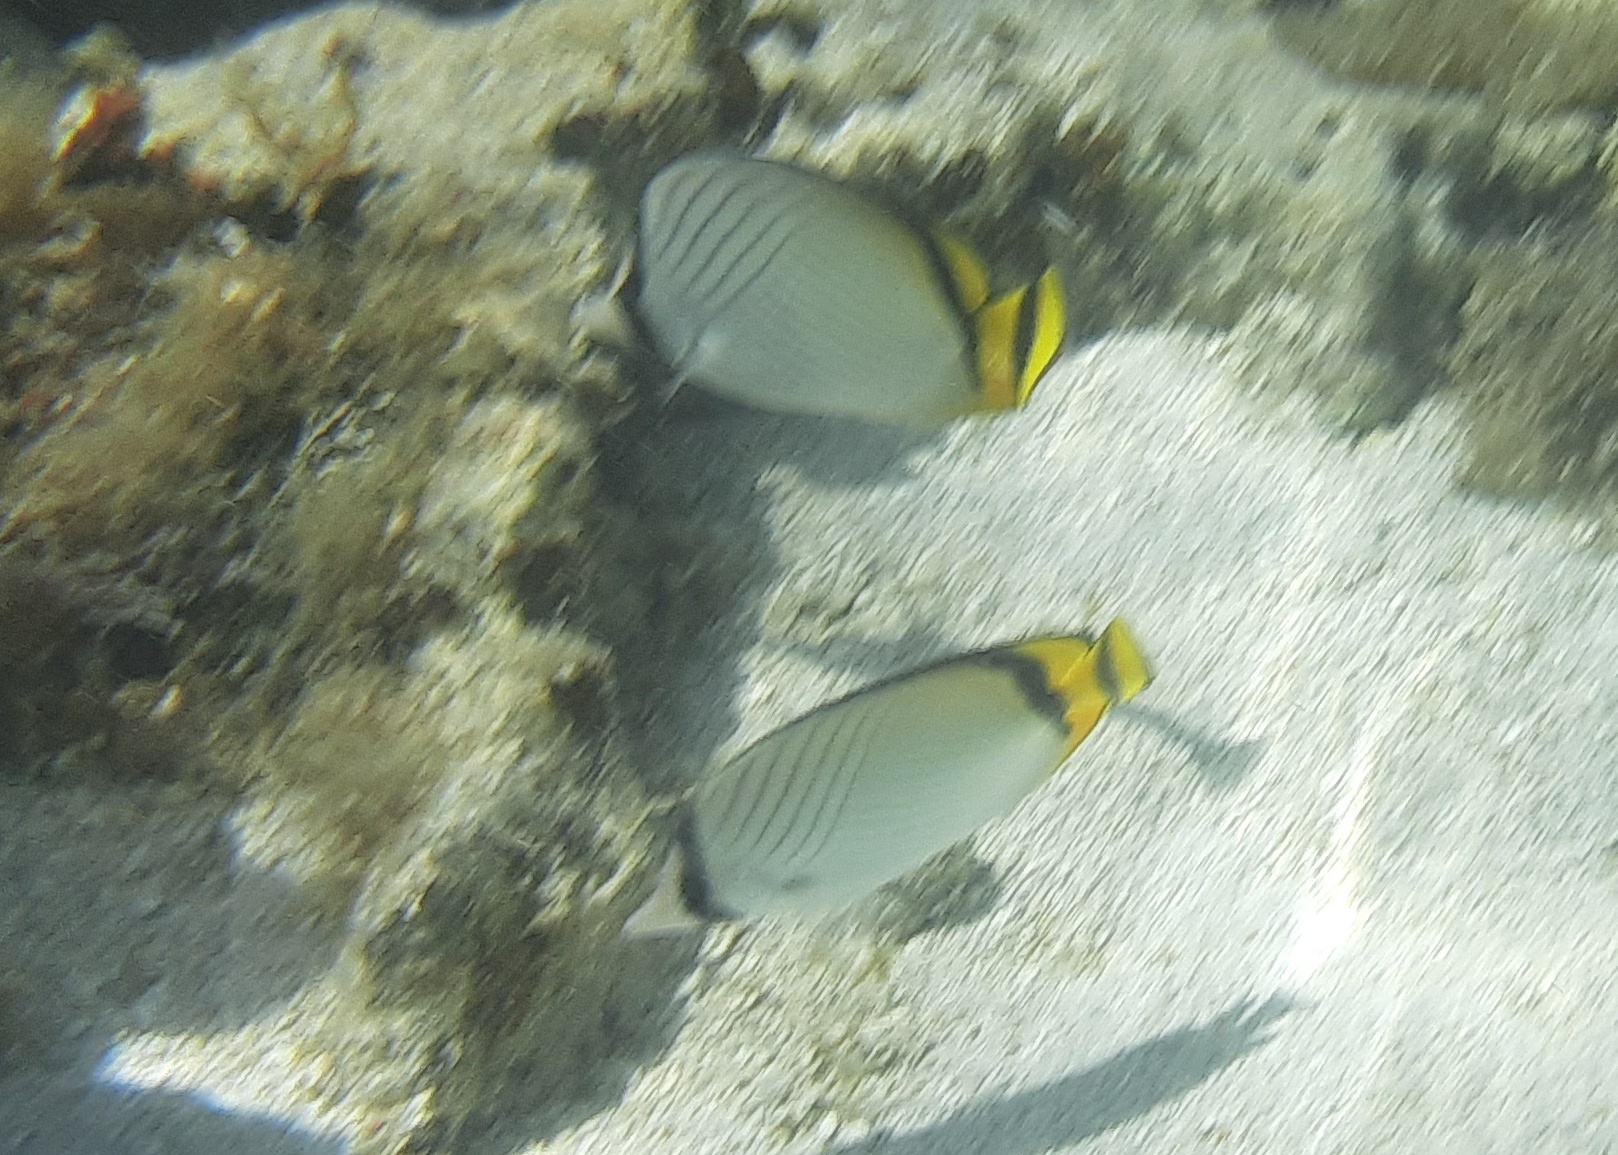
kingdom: Animalia
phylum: Chordata
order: Perciformes
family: Chaetodontidae
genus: Chaetodon
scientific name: Chaetodon vagabundus
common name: Vagabond butterflyfish
